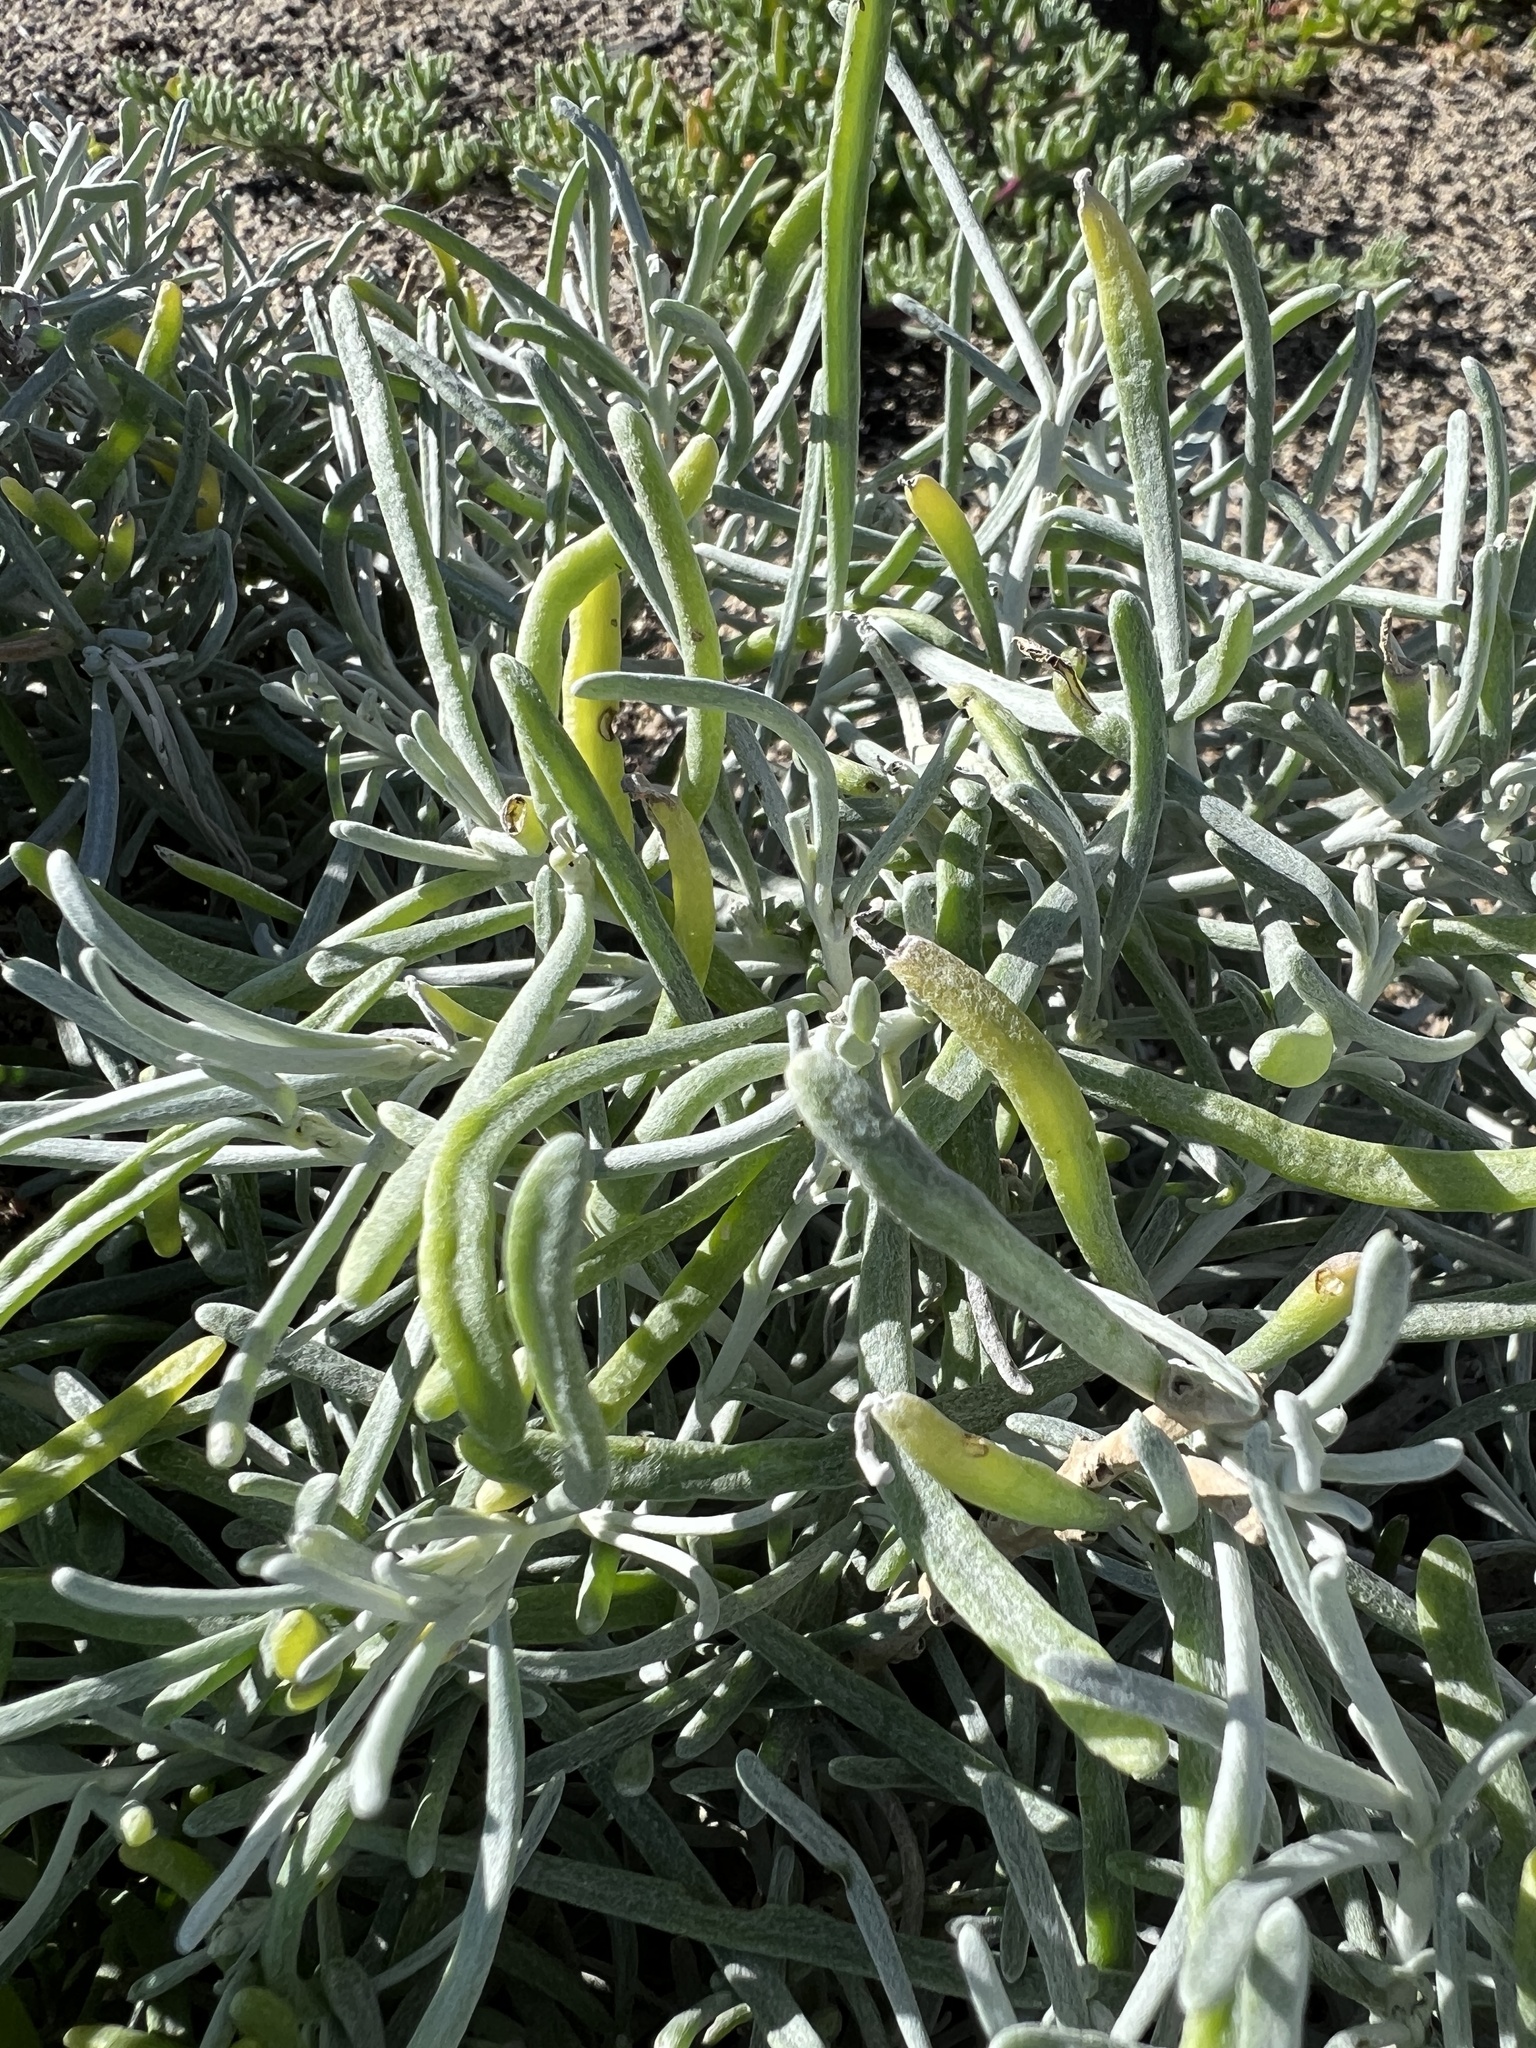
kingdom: Plantae
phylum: Tracheophyta
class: Magnoliopsida
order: Asterales
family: Asteraceae
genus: Schizogyne
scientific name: Schizogyne sericea
